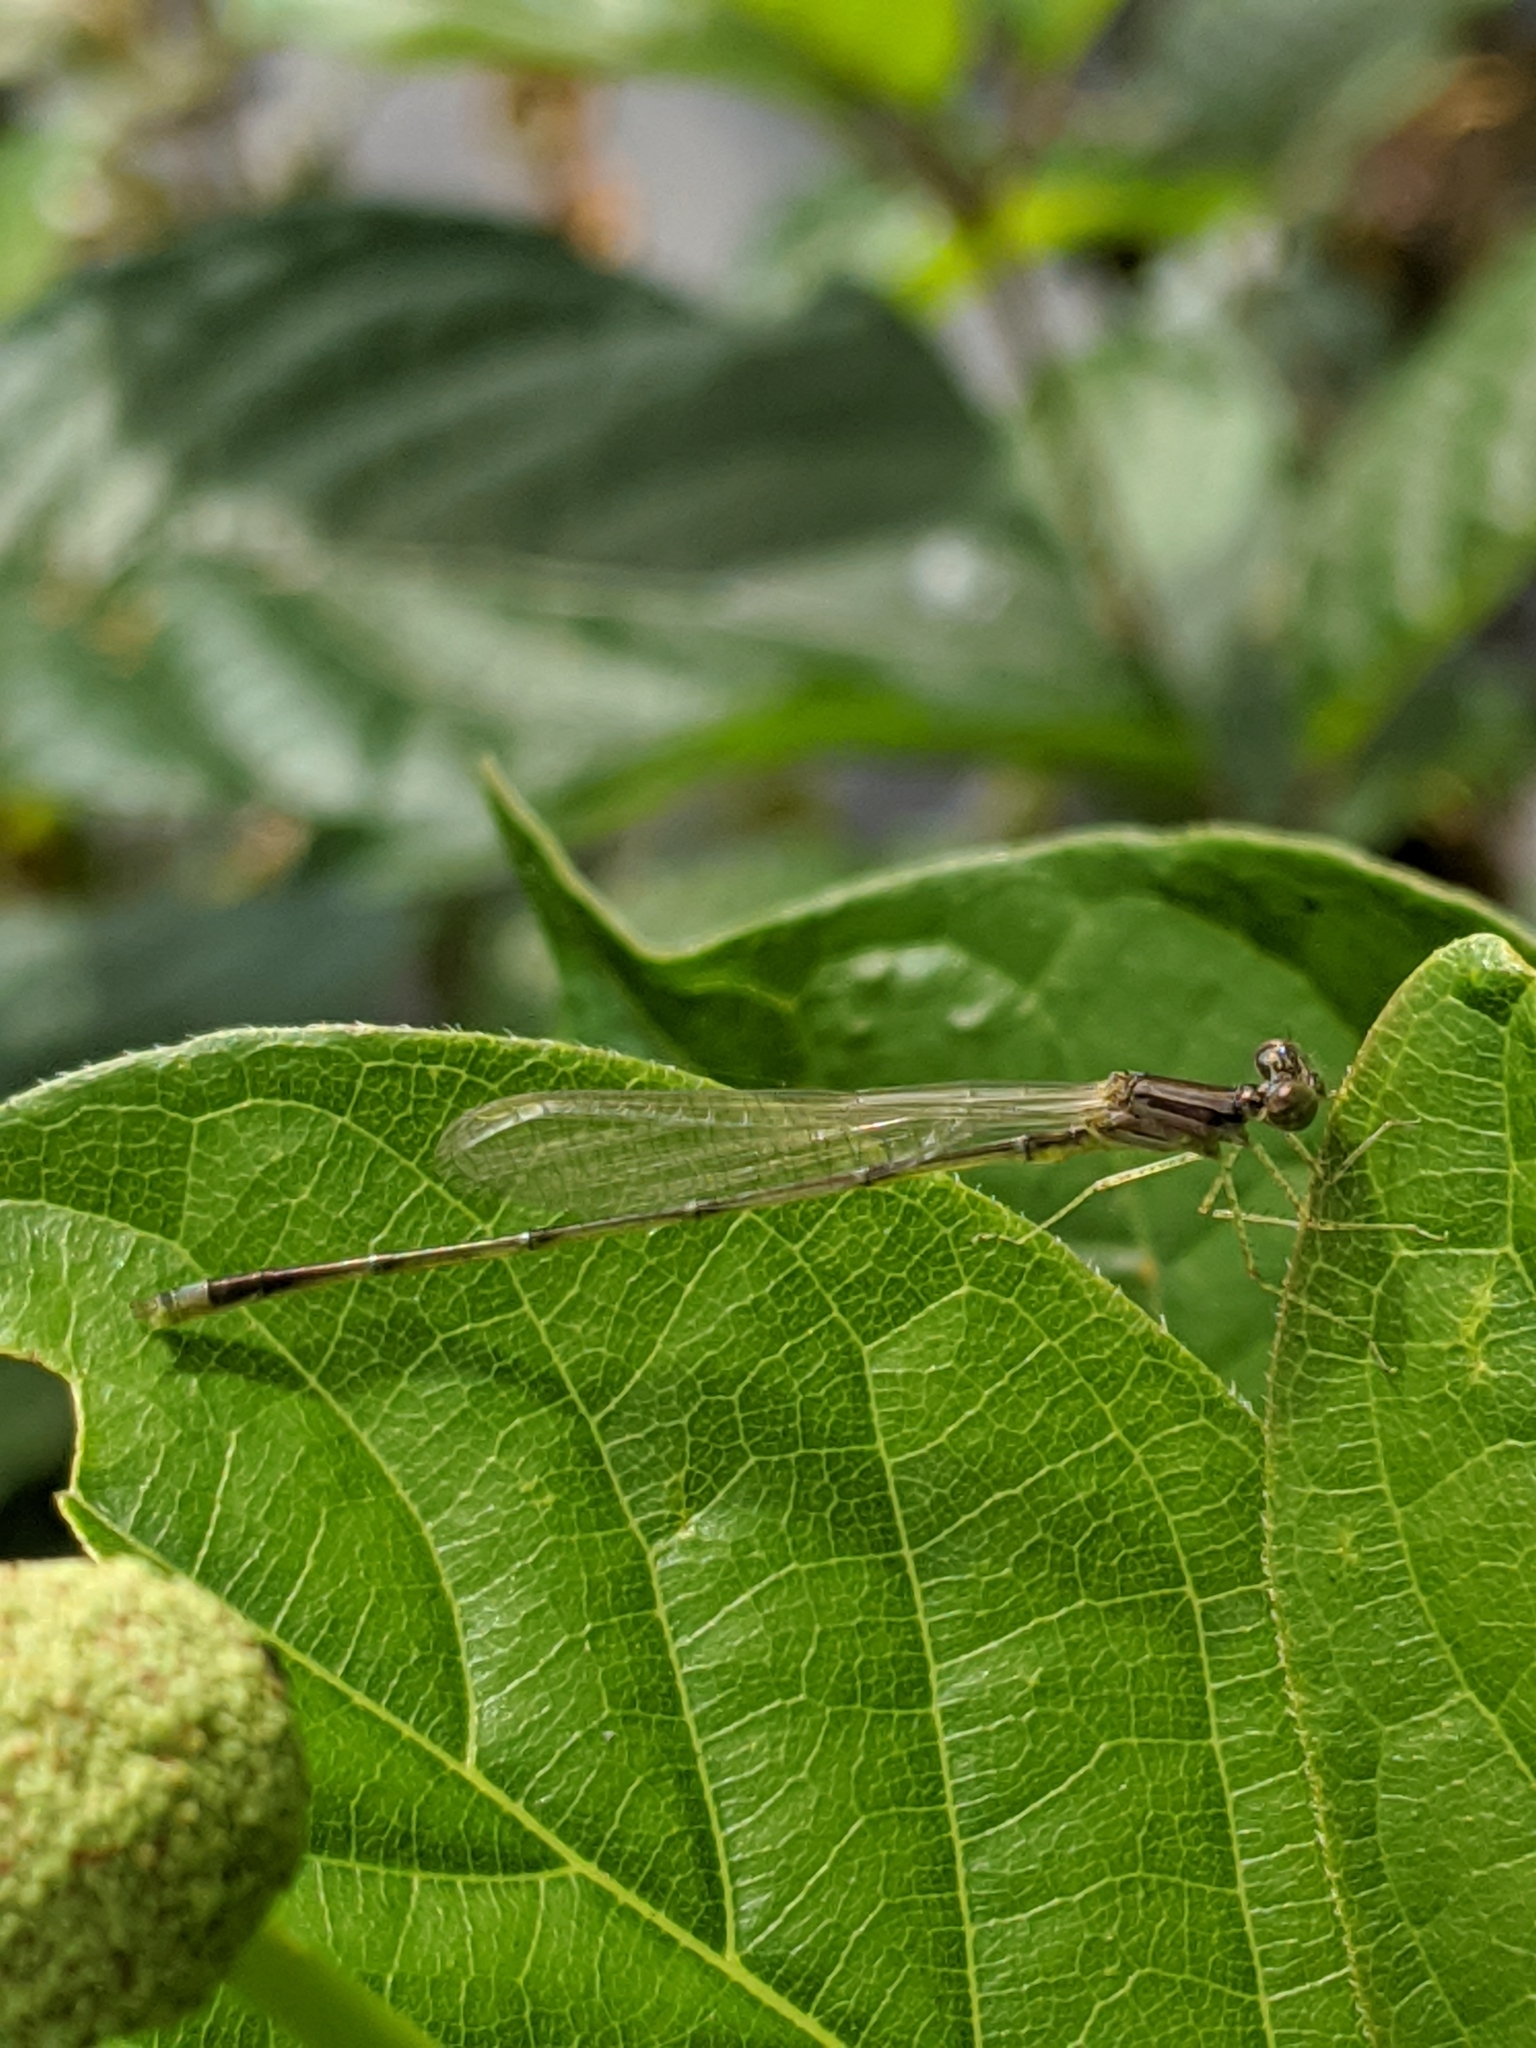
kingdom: Animalia
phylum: Arthropoda
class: Insecta
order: Odonata
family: Coenagrionidae
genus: Enallagma
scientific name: Enallagma signatum
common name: Orange bluet
